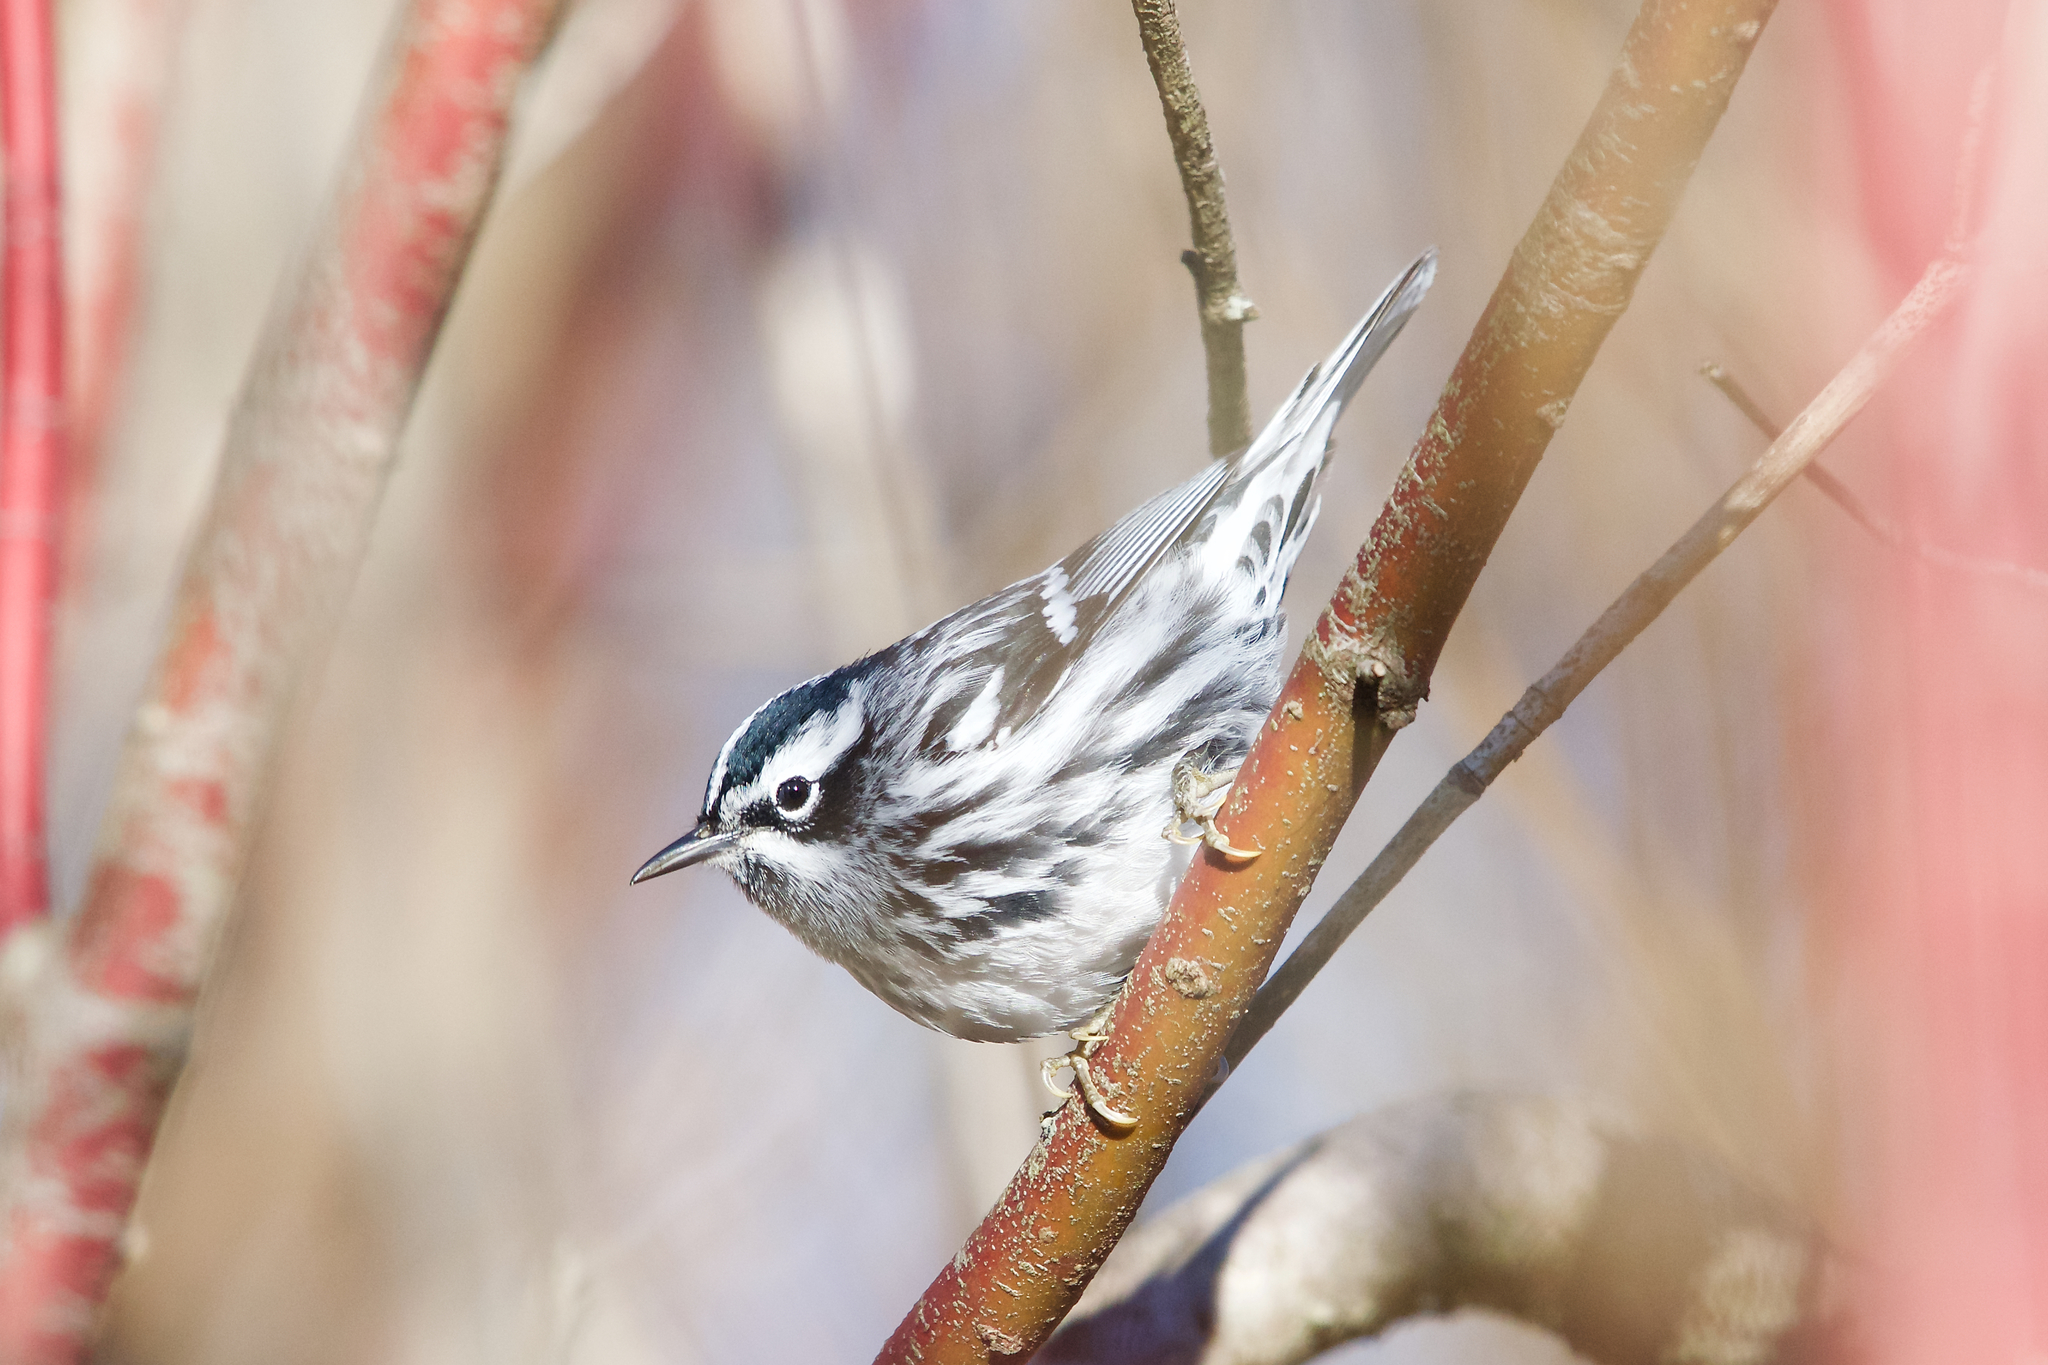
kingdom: Animalia
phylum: Chordata
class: Aves
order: Passeriformes
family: Parulidae
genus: Mniotilta
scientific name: Mniotilta varia
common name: Black-and-white warbler
